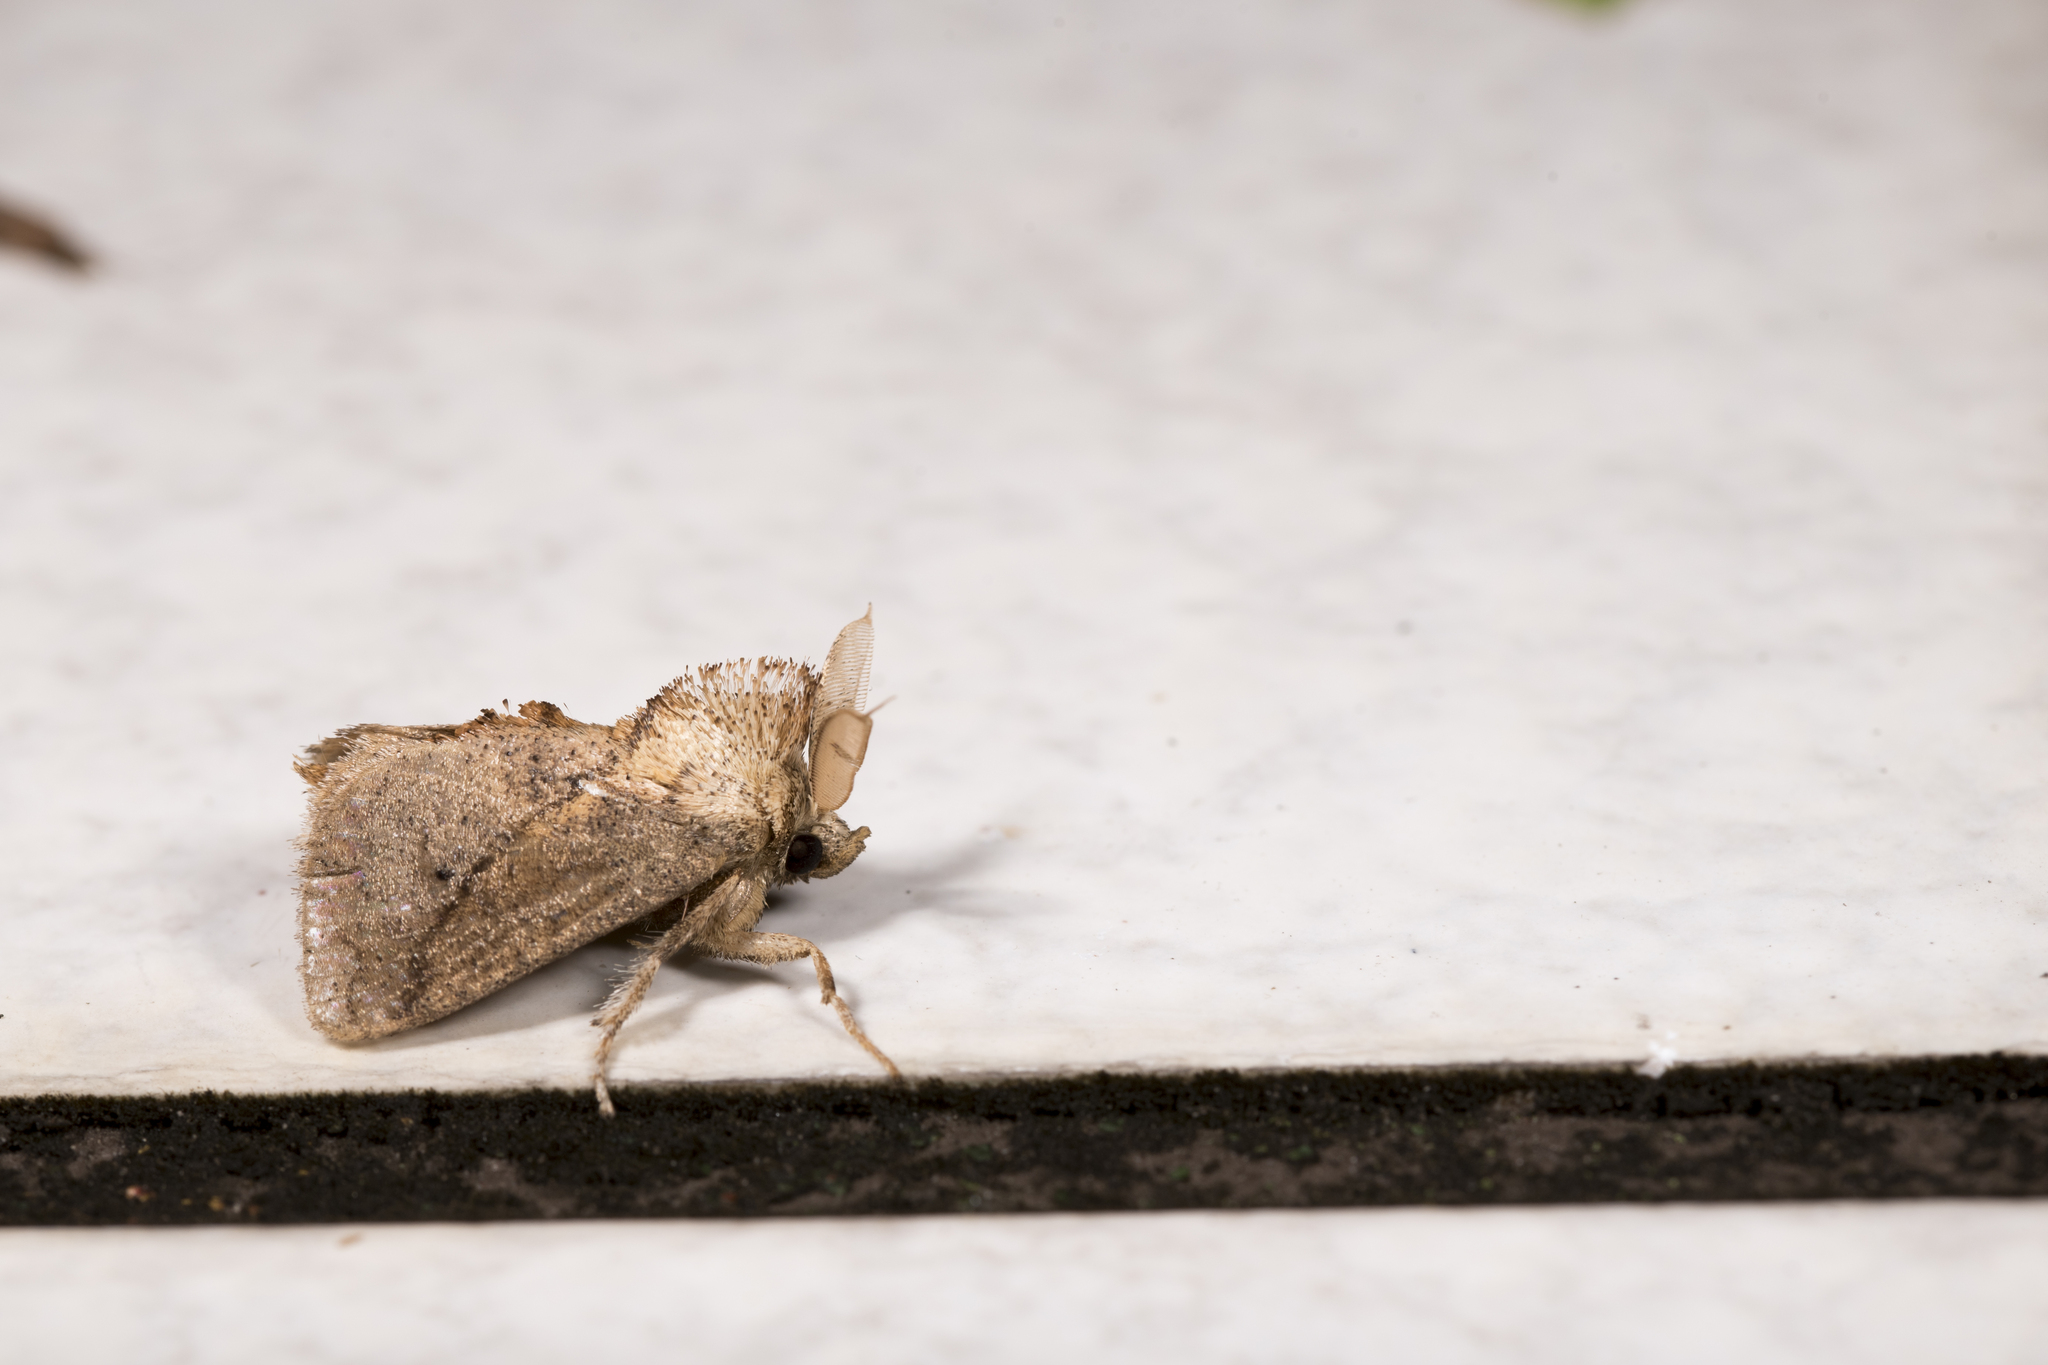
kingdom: Animalia
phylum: Arthropoda
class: Insecta
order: Lepidoptera
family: Limacodidae
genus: Susica
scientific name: Susica sinensis
